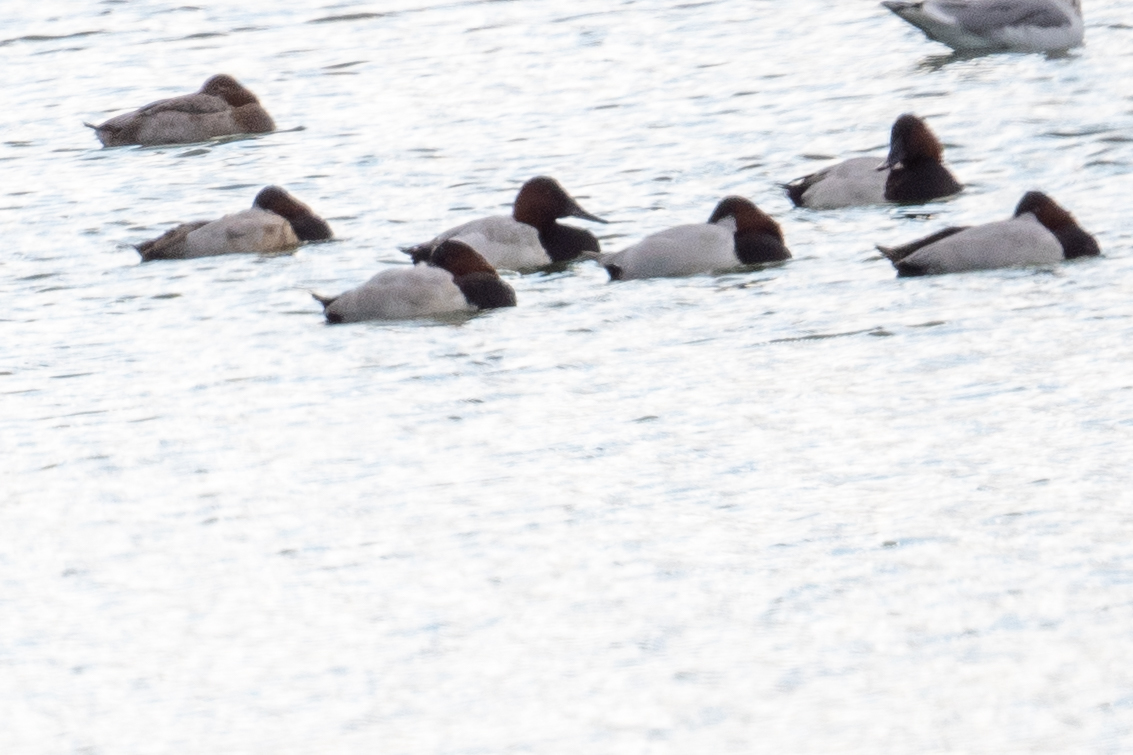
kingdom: Animalia
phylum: Chordata
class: Aves
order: Anseriformes
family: Anatidae
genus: Aythya
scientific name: Aythya valisineria
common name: Canvasback
